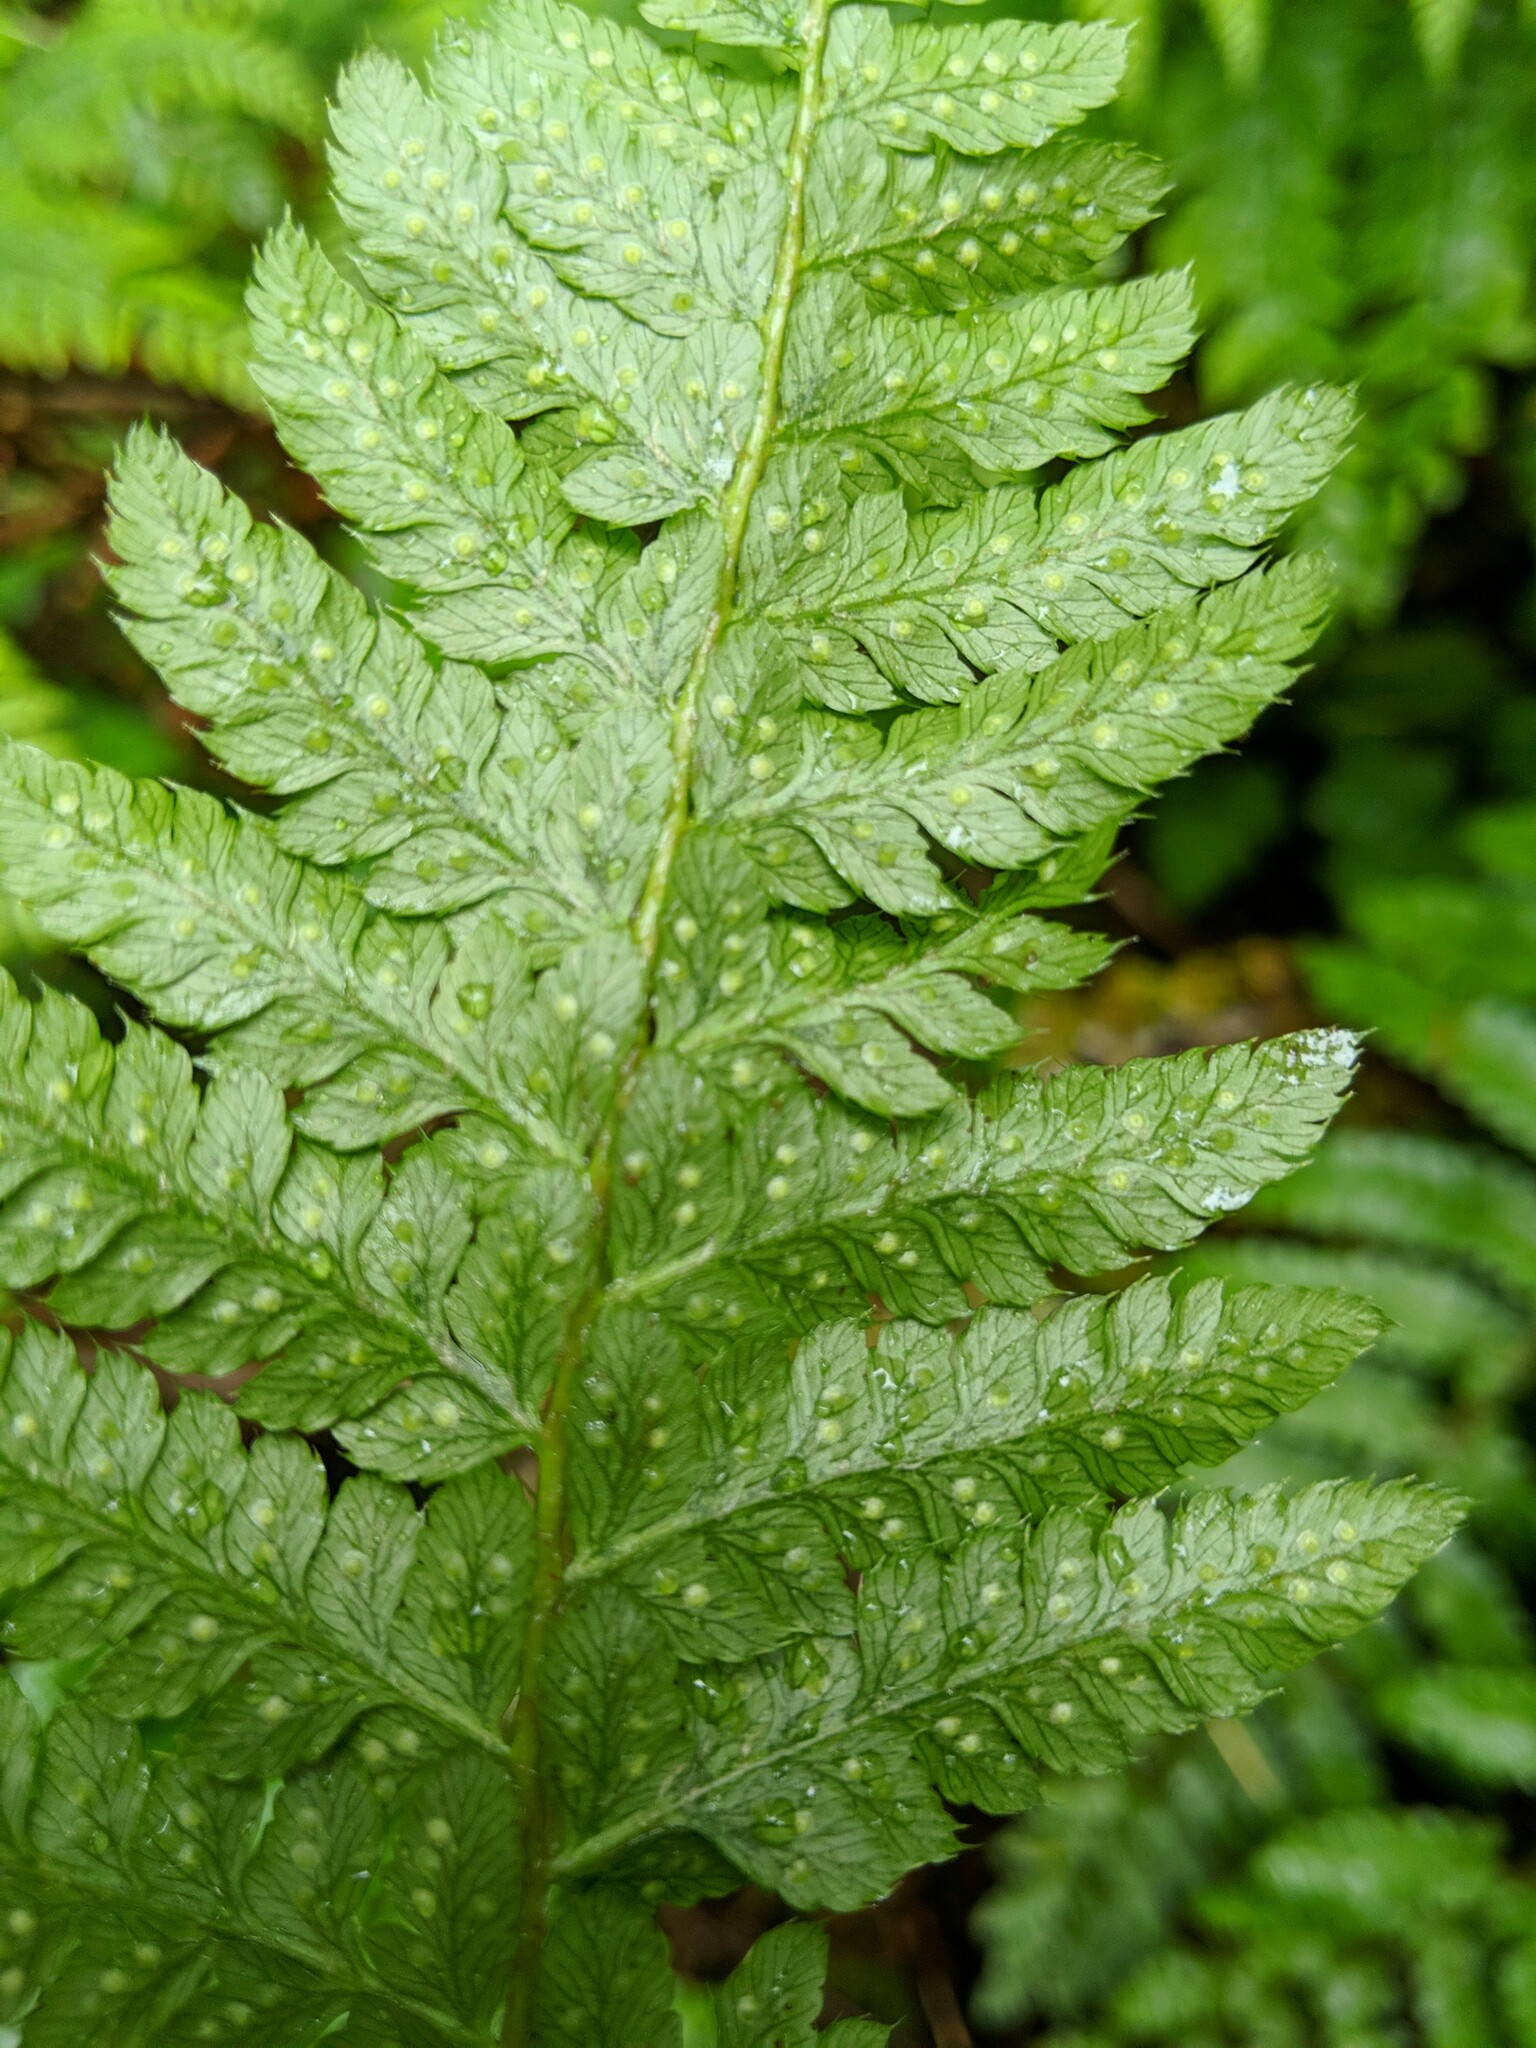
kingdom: Plantae
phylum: Tracheophyta
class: Polypodiopsida
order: Polypodiales
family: Dryopteridaceae
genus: Polystichum
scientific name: Polystichum braunii
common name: Braun's holly fern
